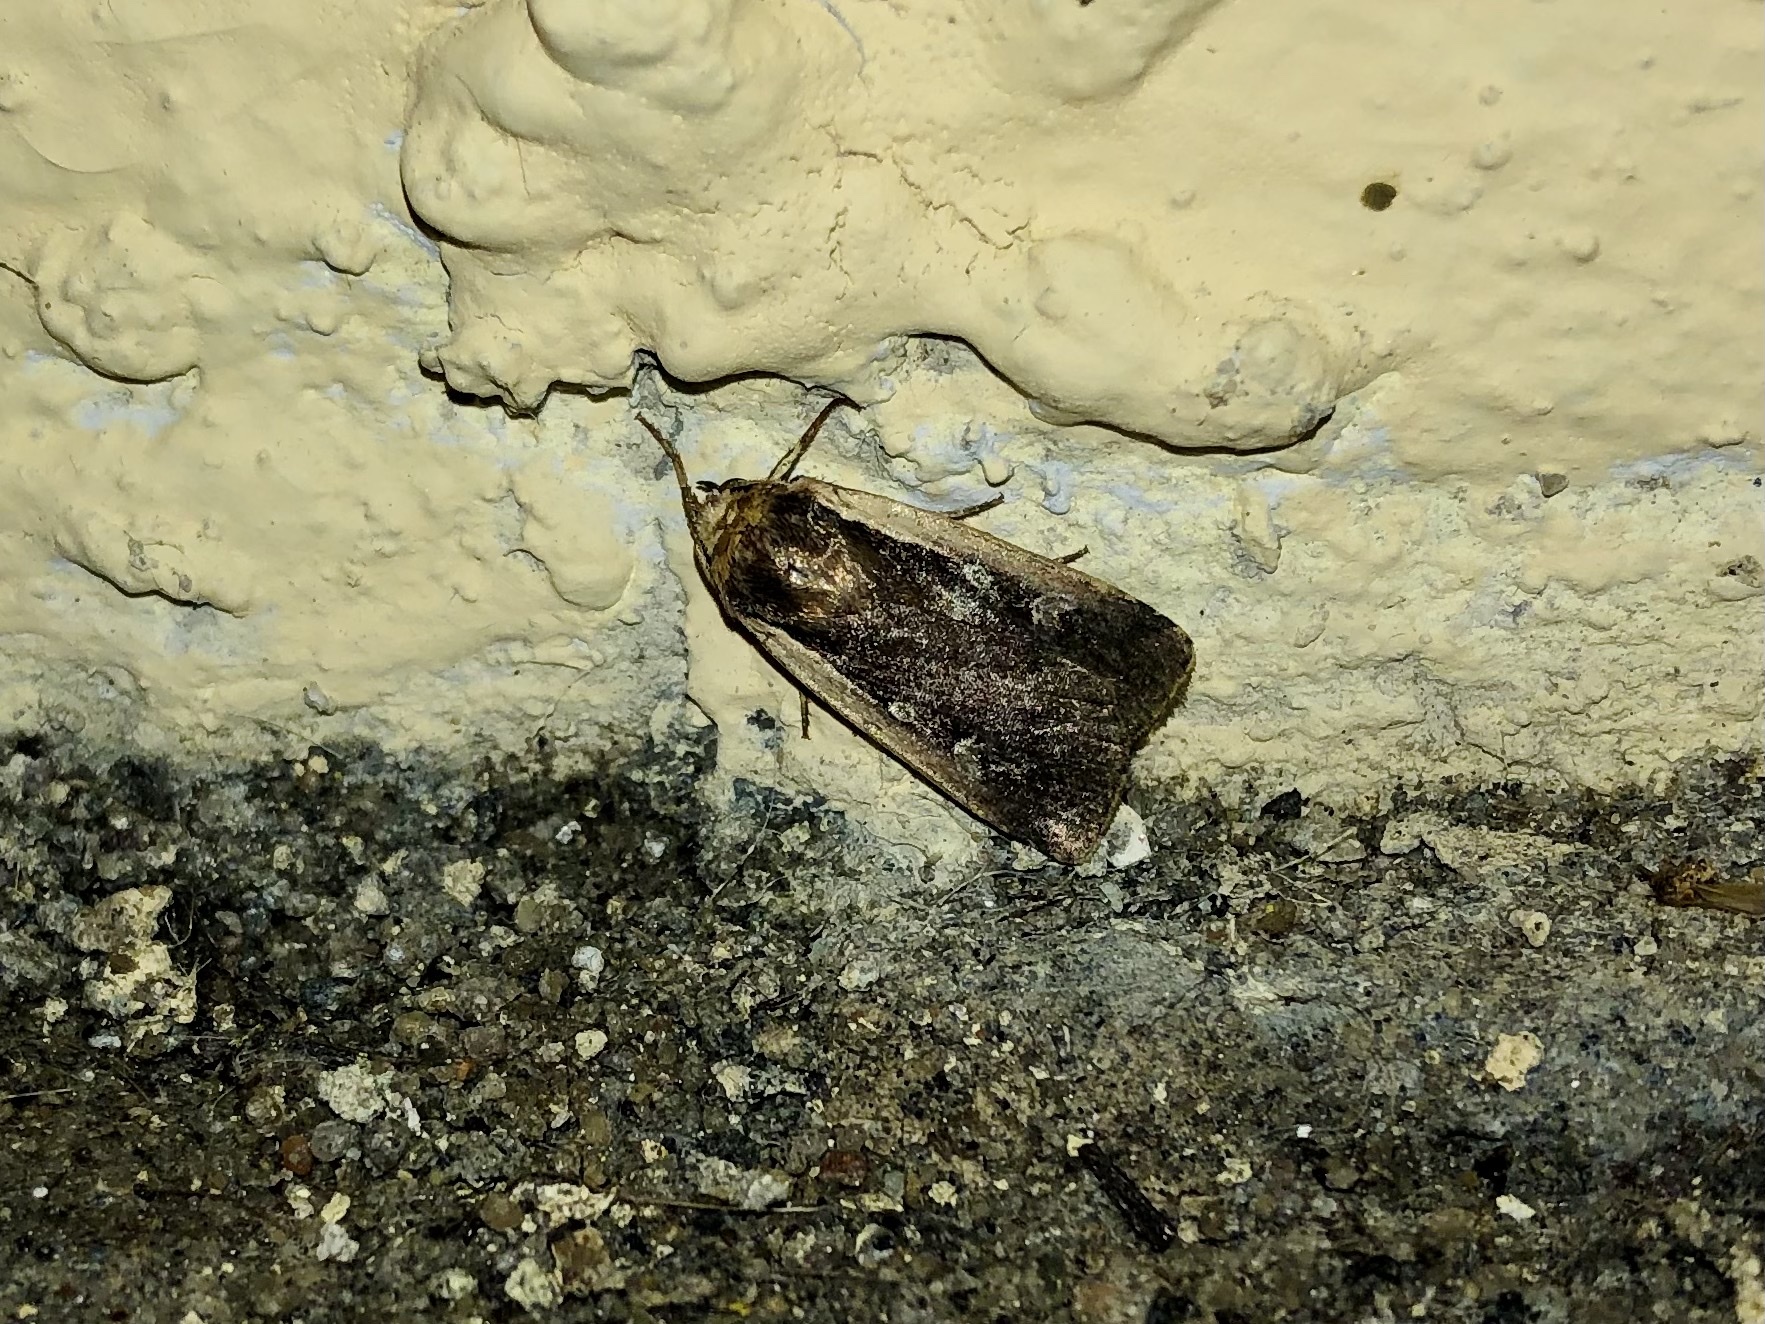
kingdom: Animalia
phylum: Arthropoda
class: Insecta
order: Lepidoptera
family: Noctuidae
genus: Ochropleura
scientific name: Ochropleura plecta
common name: Flame shoulder
